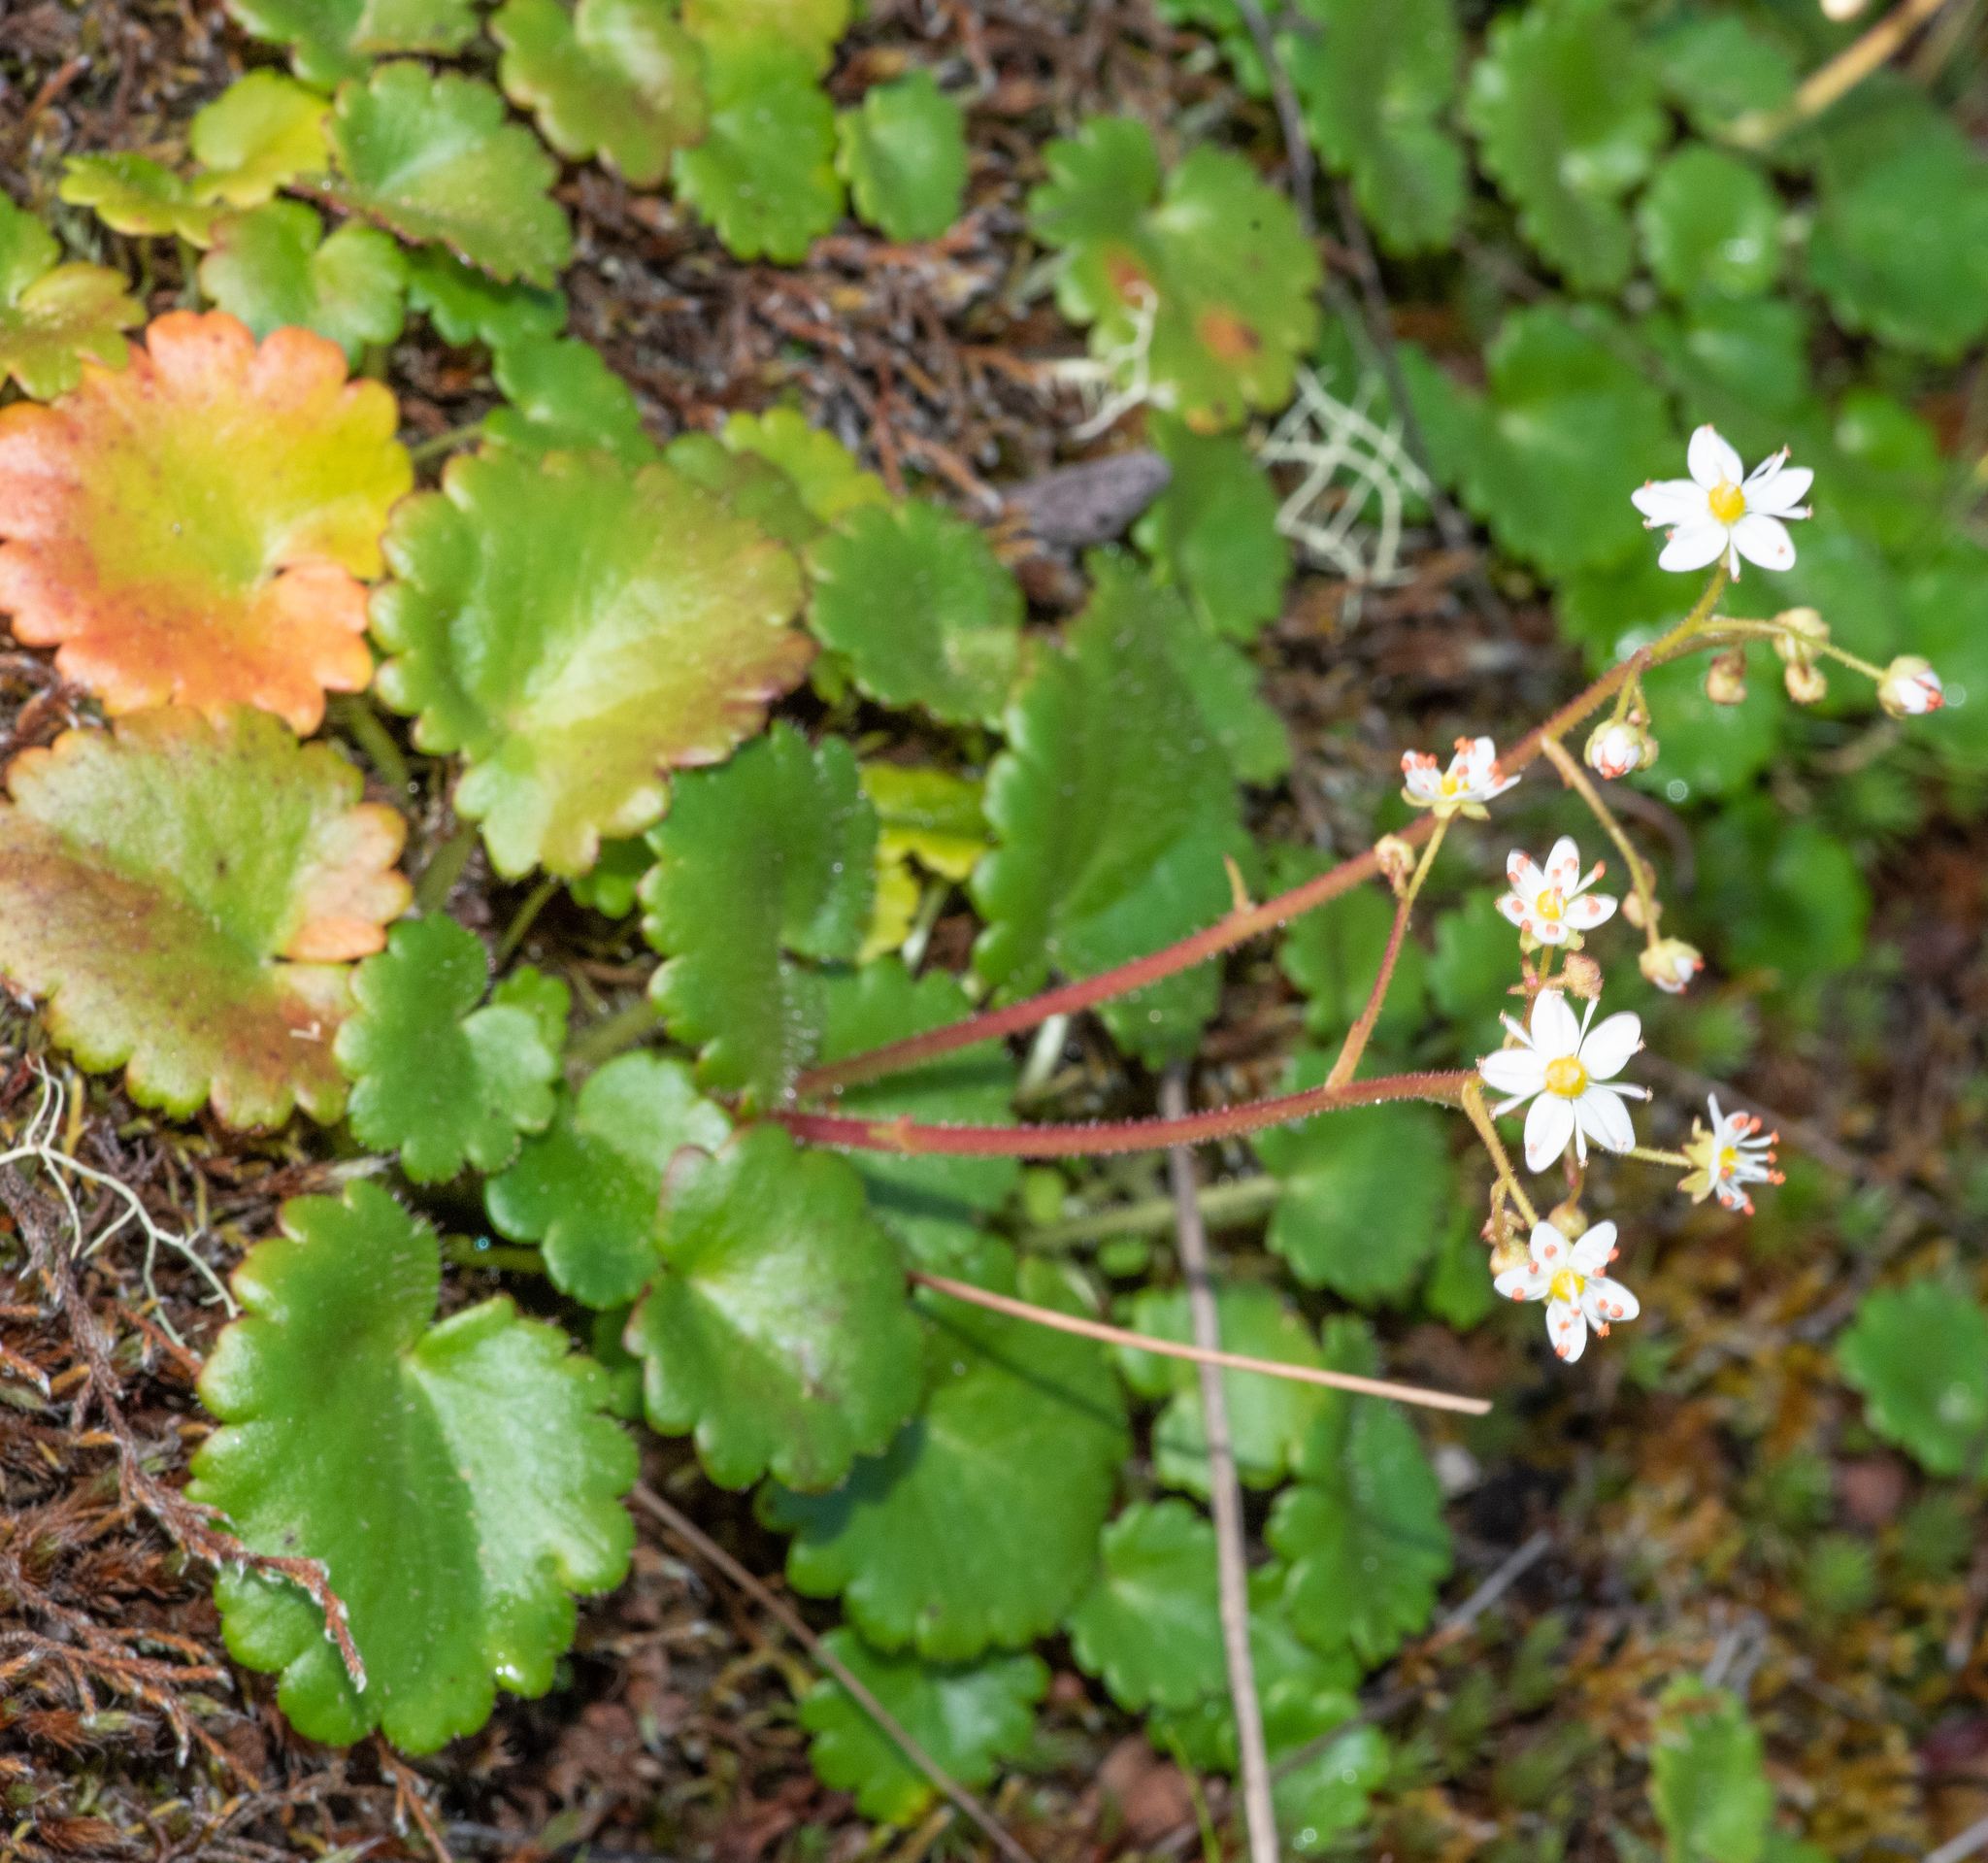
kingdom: Plantae
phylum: Tracheophyta
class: Magnoliopsida
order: Saxifragales
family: Saxifragaceae
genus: Micranthes
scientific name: Micranthes mertensiana
